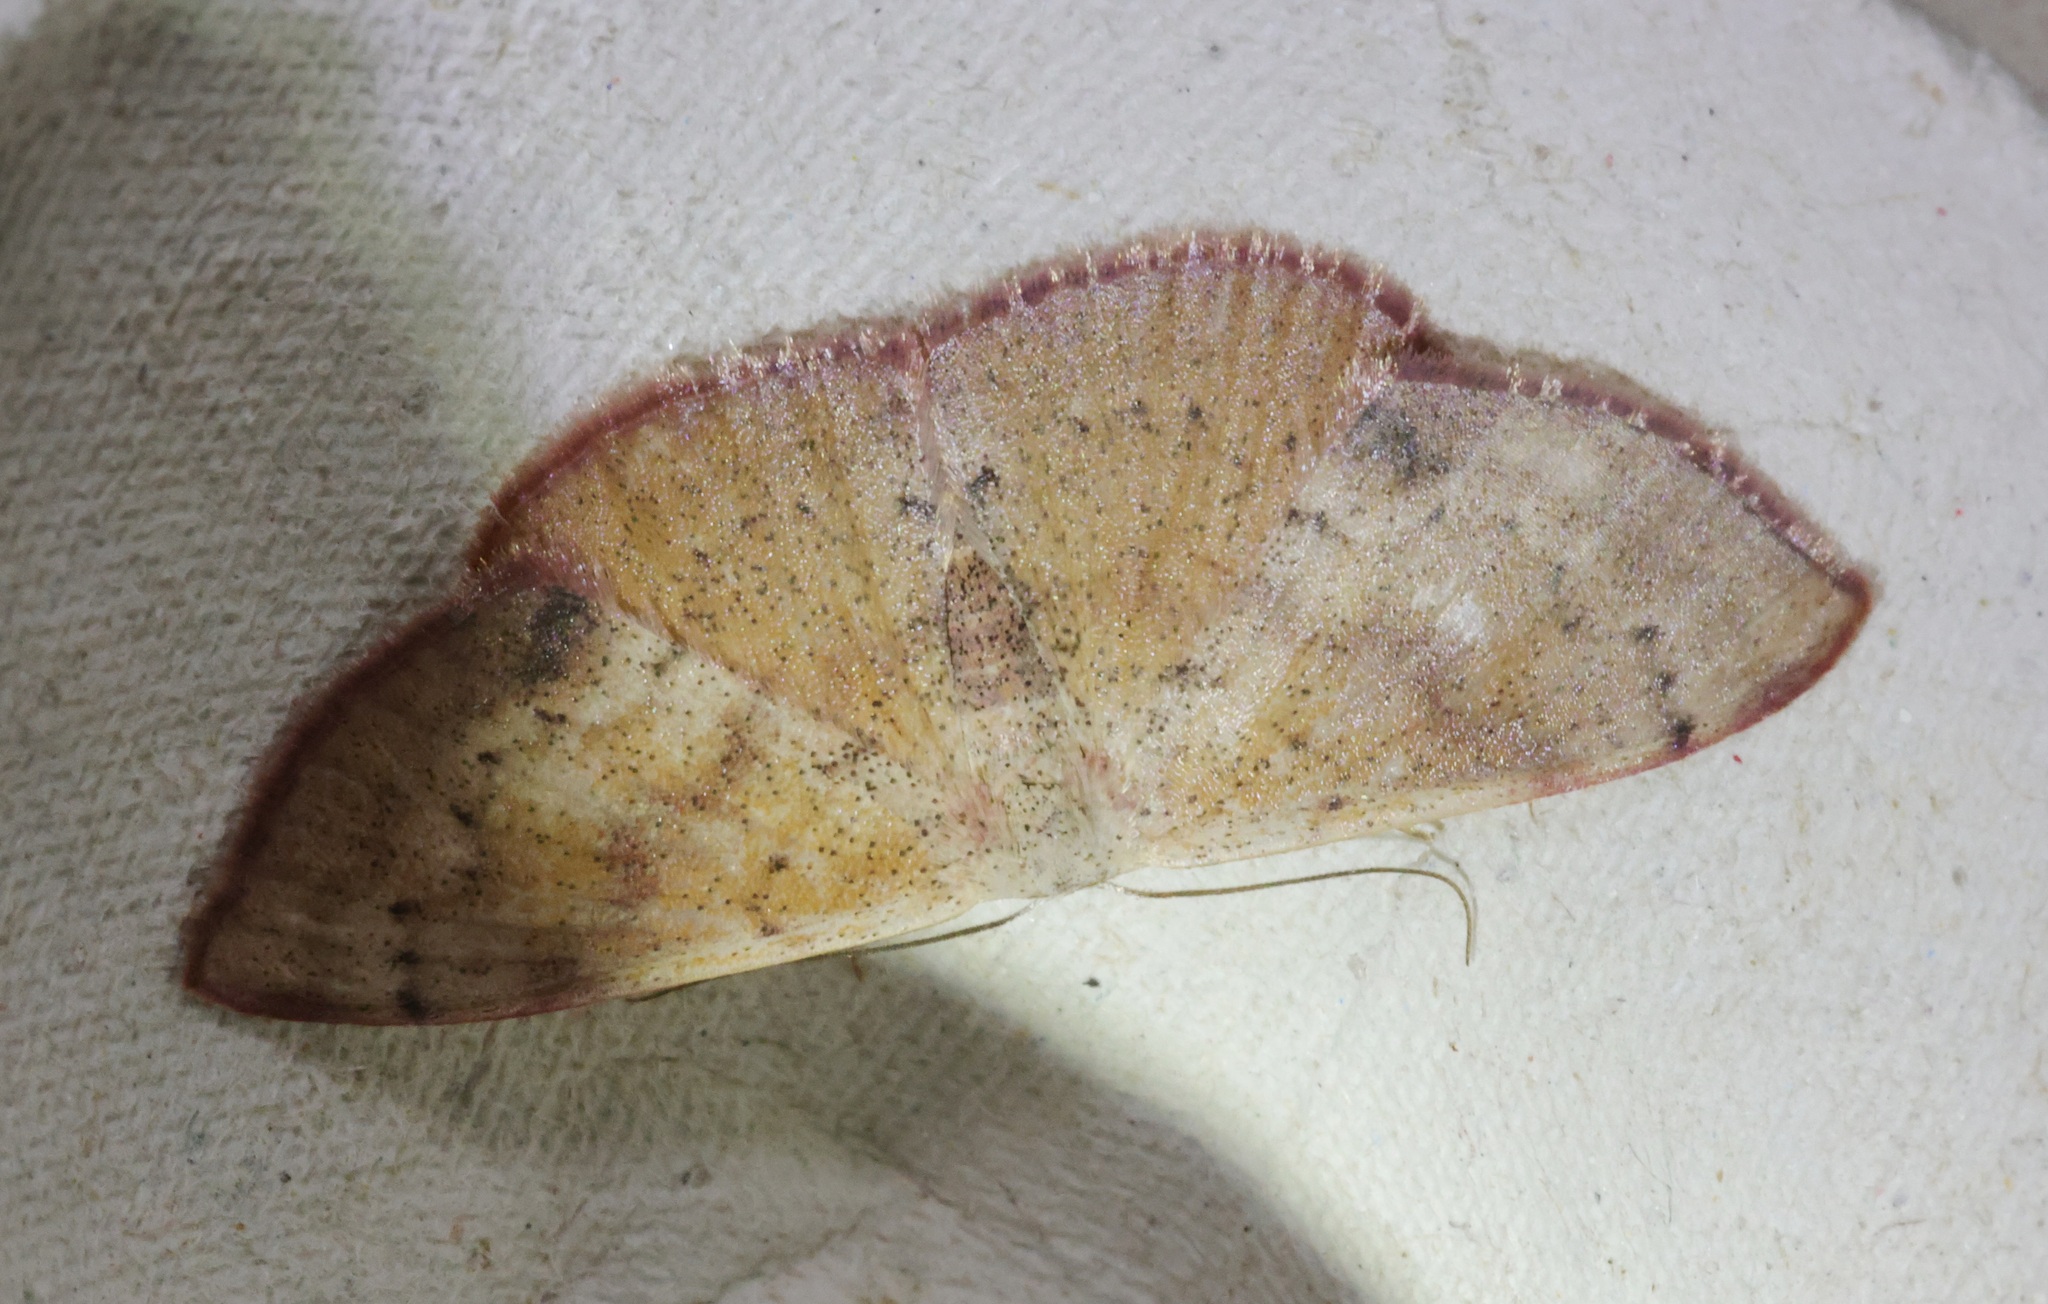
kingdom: Animalia
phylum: Arthropoda
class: Insecta
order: Lepidoptera
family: Geometridae
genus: Somatina
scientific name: Somatina obscuriciliata
